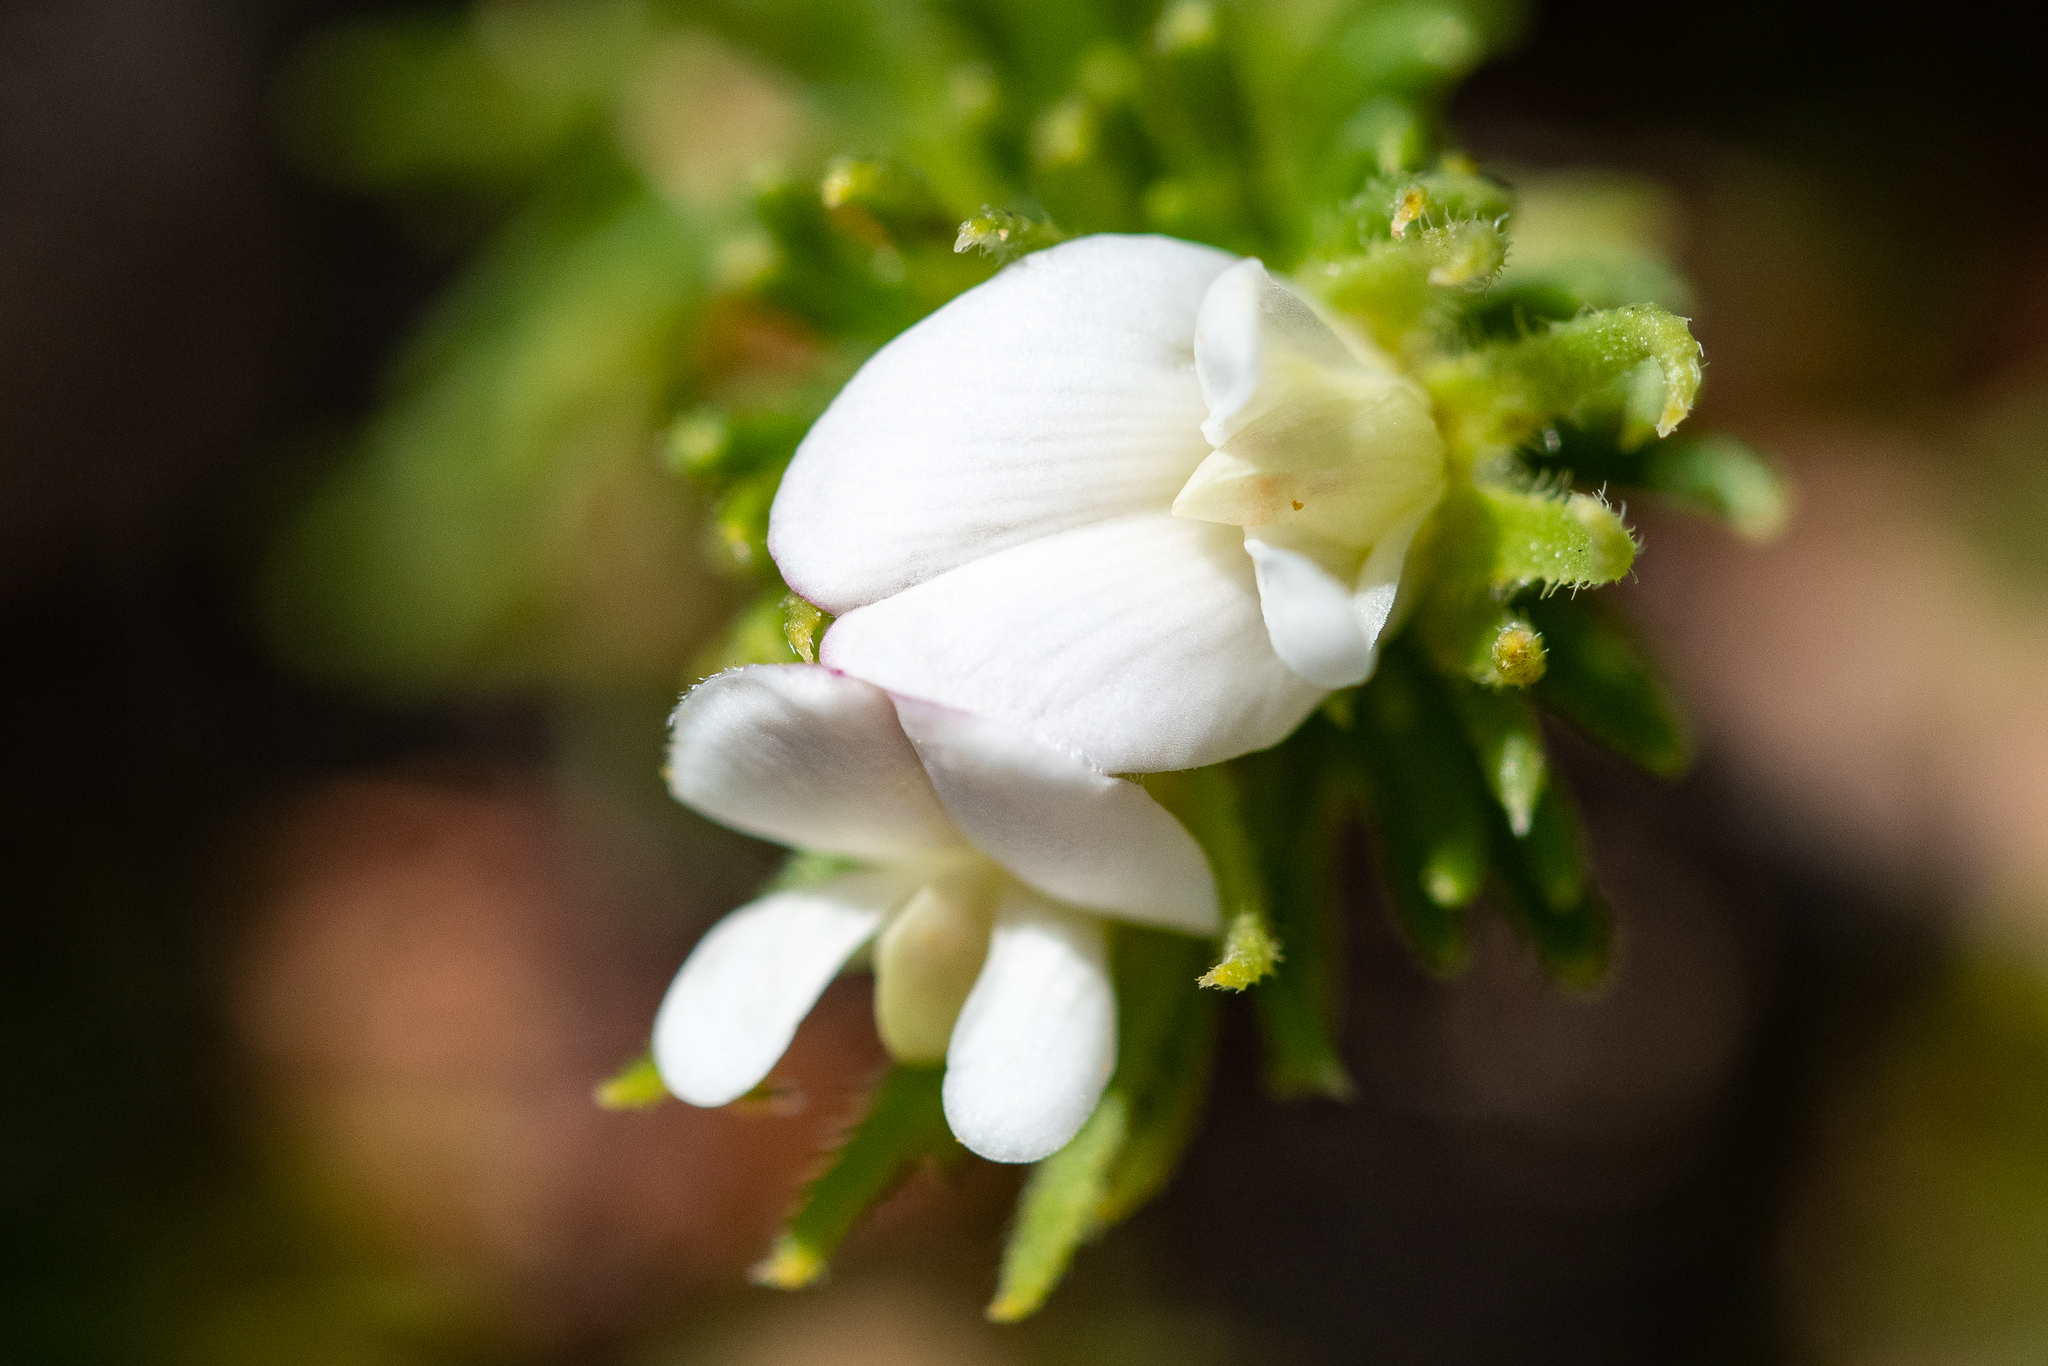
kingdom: Plantae
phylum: Tracheophyta
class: Magnoliopsida
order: Fabales
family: Fabaceae
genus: Aspalathus
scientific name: Aspalathus forbesii
